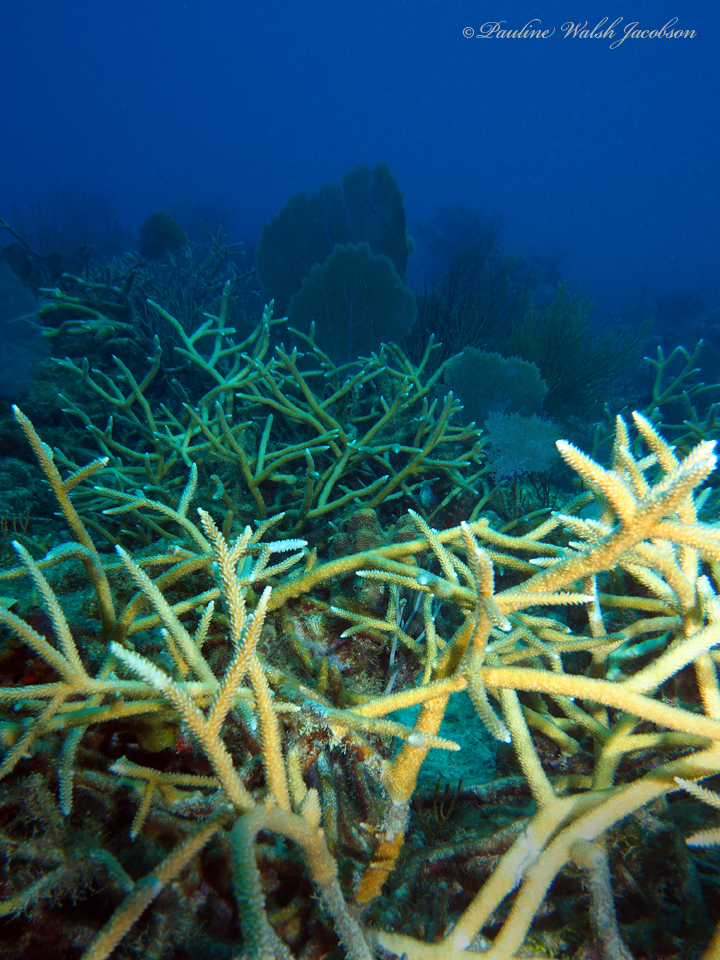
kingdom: Animalia
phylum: Cnidaria
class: Anthozoa
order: Scleractinia
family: Acroporidae
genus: Acropora
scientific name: Acropora cervicornis
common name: Staghorn coral
